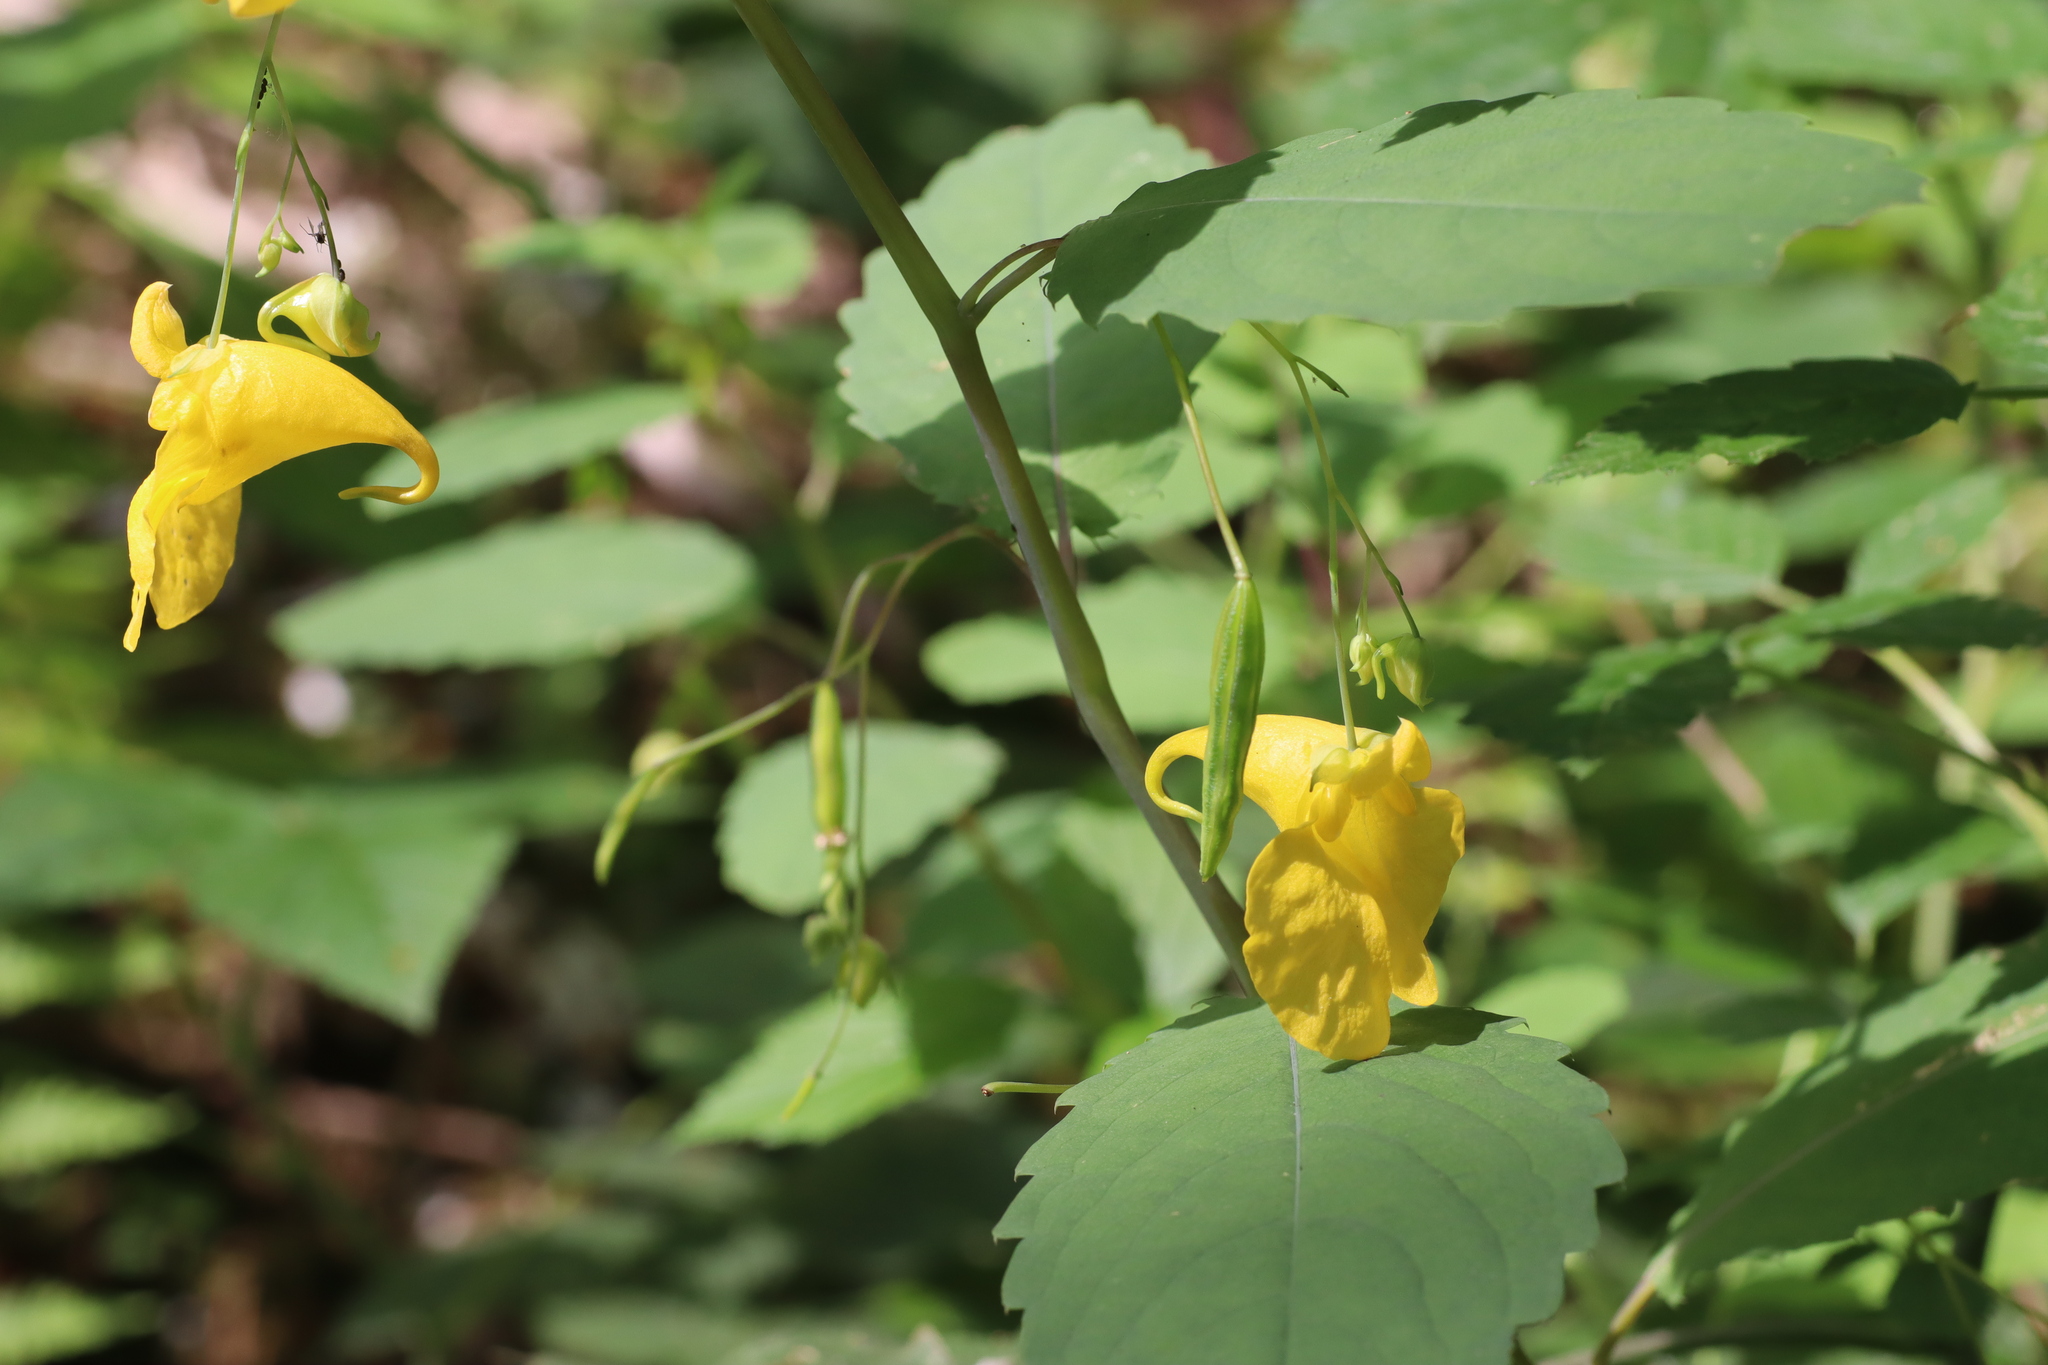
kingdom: Plantae
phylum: Tracheophyta
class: Magnoliopsida
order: Ericales
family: Balsaminaceae
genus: Impatiens
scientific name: Impatiens noli-tangere
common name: Touch-me-not balsam
